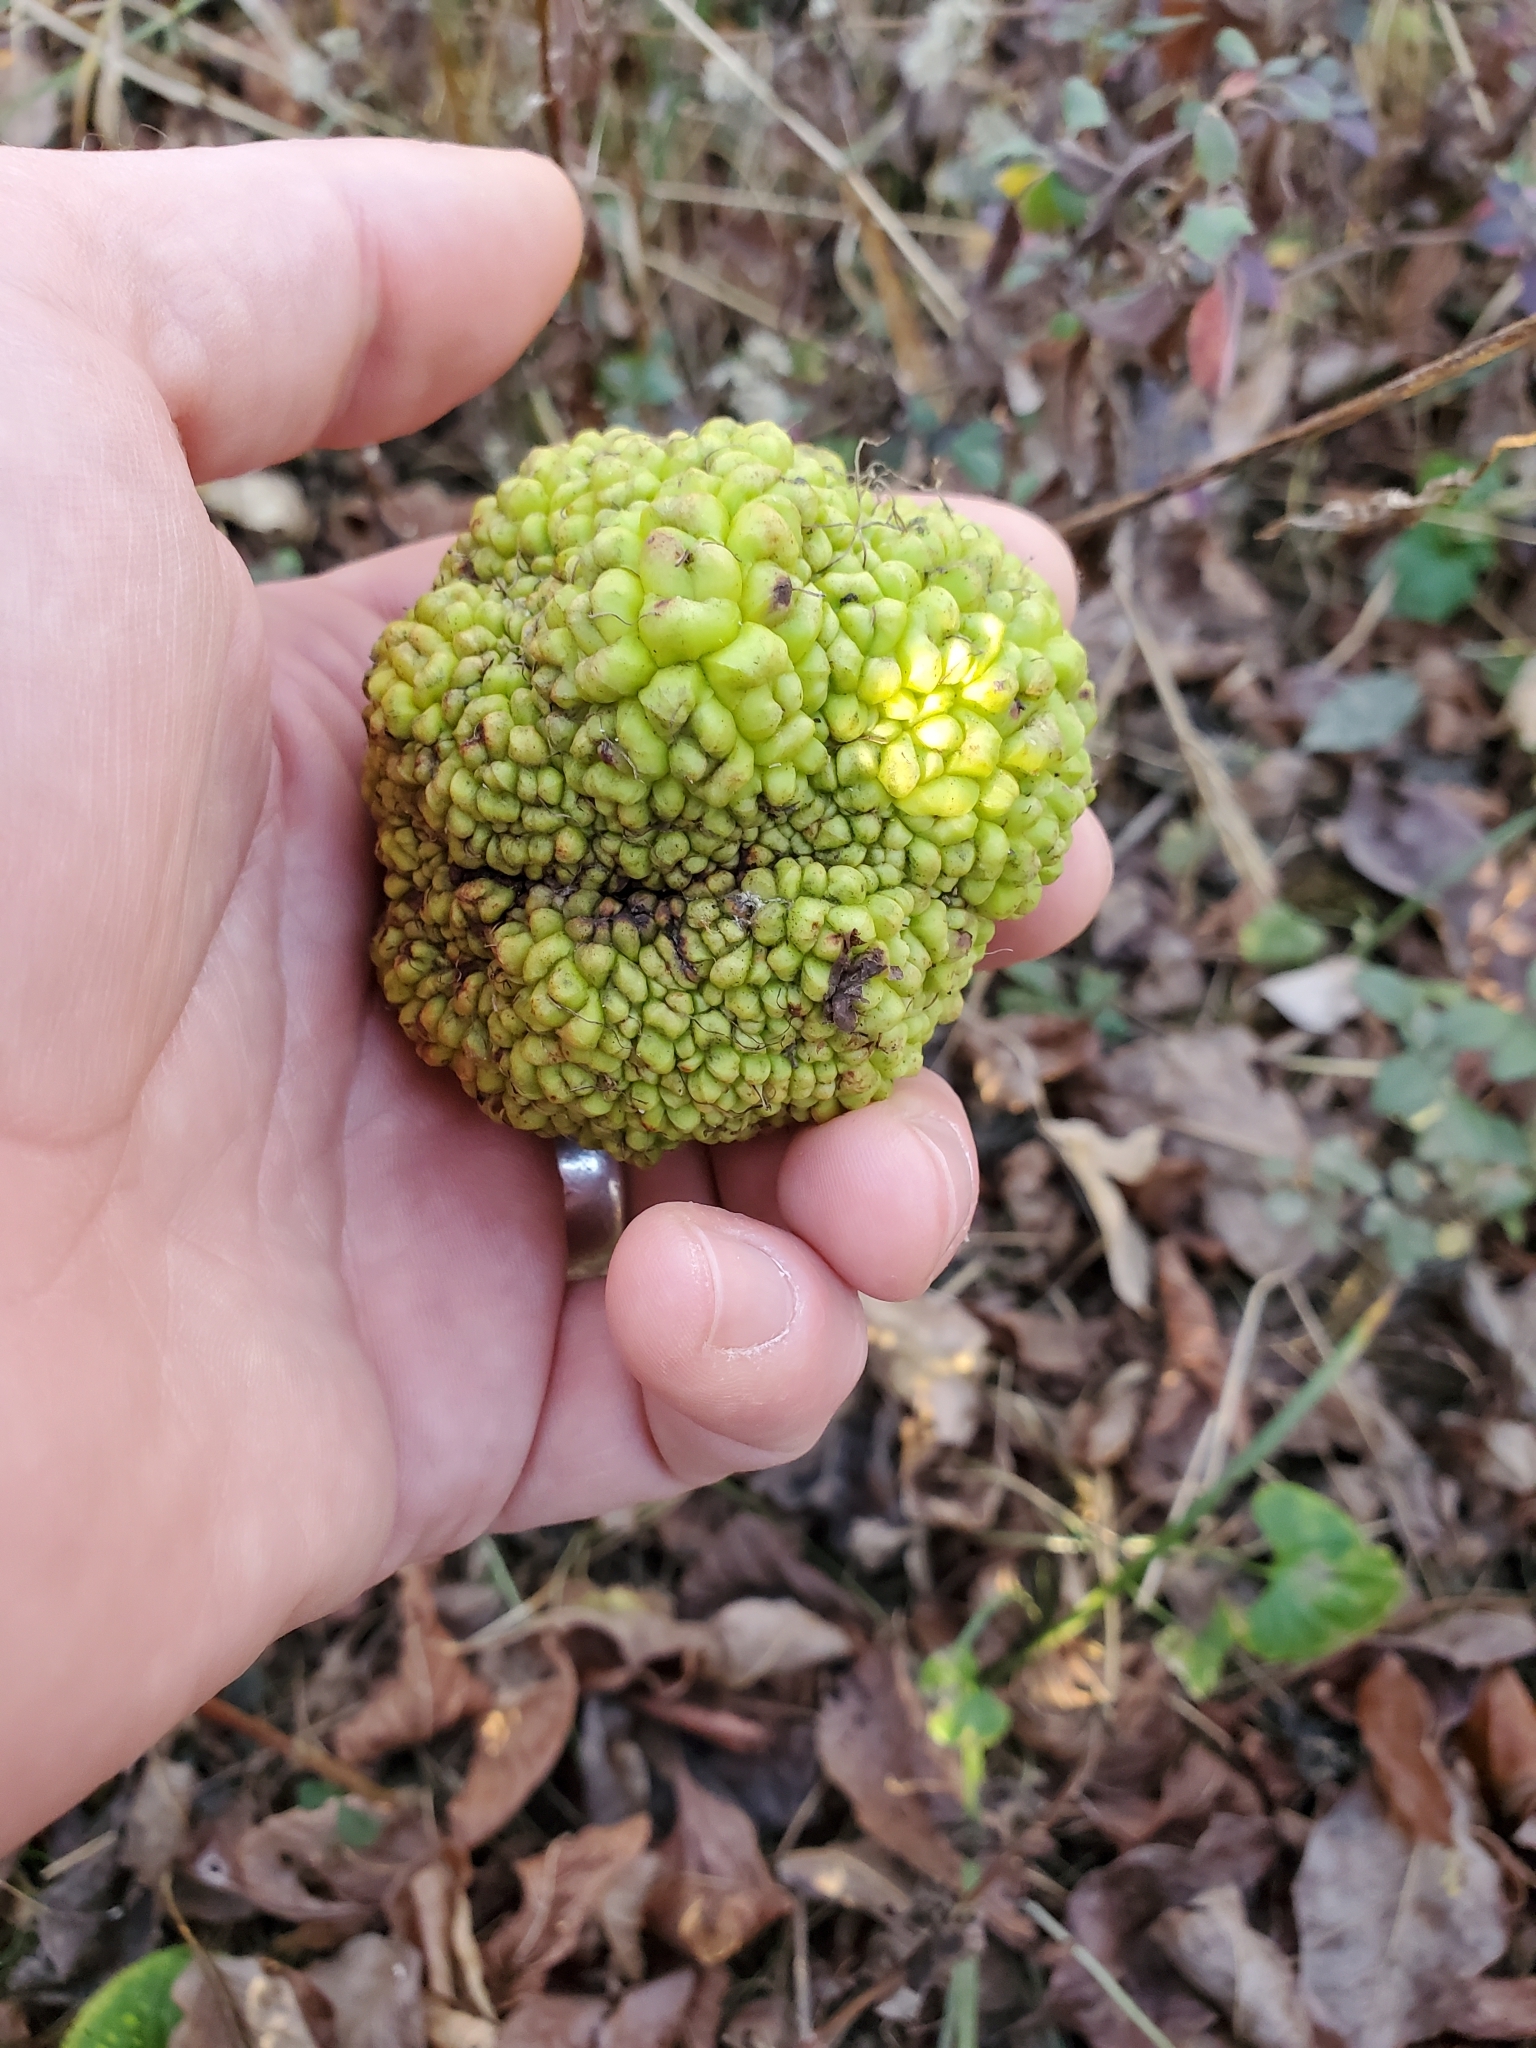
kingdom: Plantae
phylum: Tracheophyta
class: Magnoliopsida
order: Rosales
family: Moraceae
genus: Maclura
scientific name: Maclura pomifera
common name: Osage-orange
